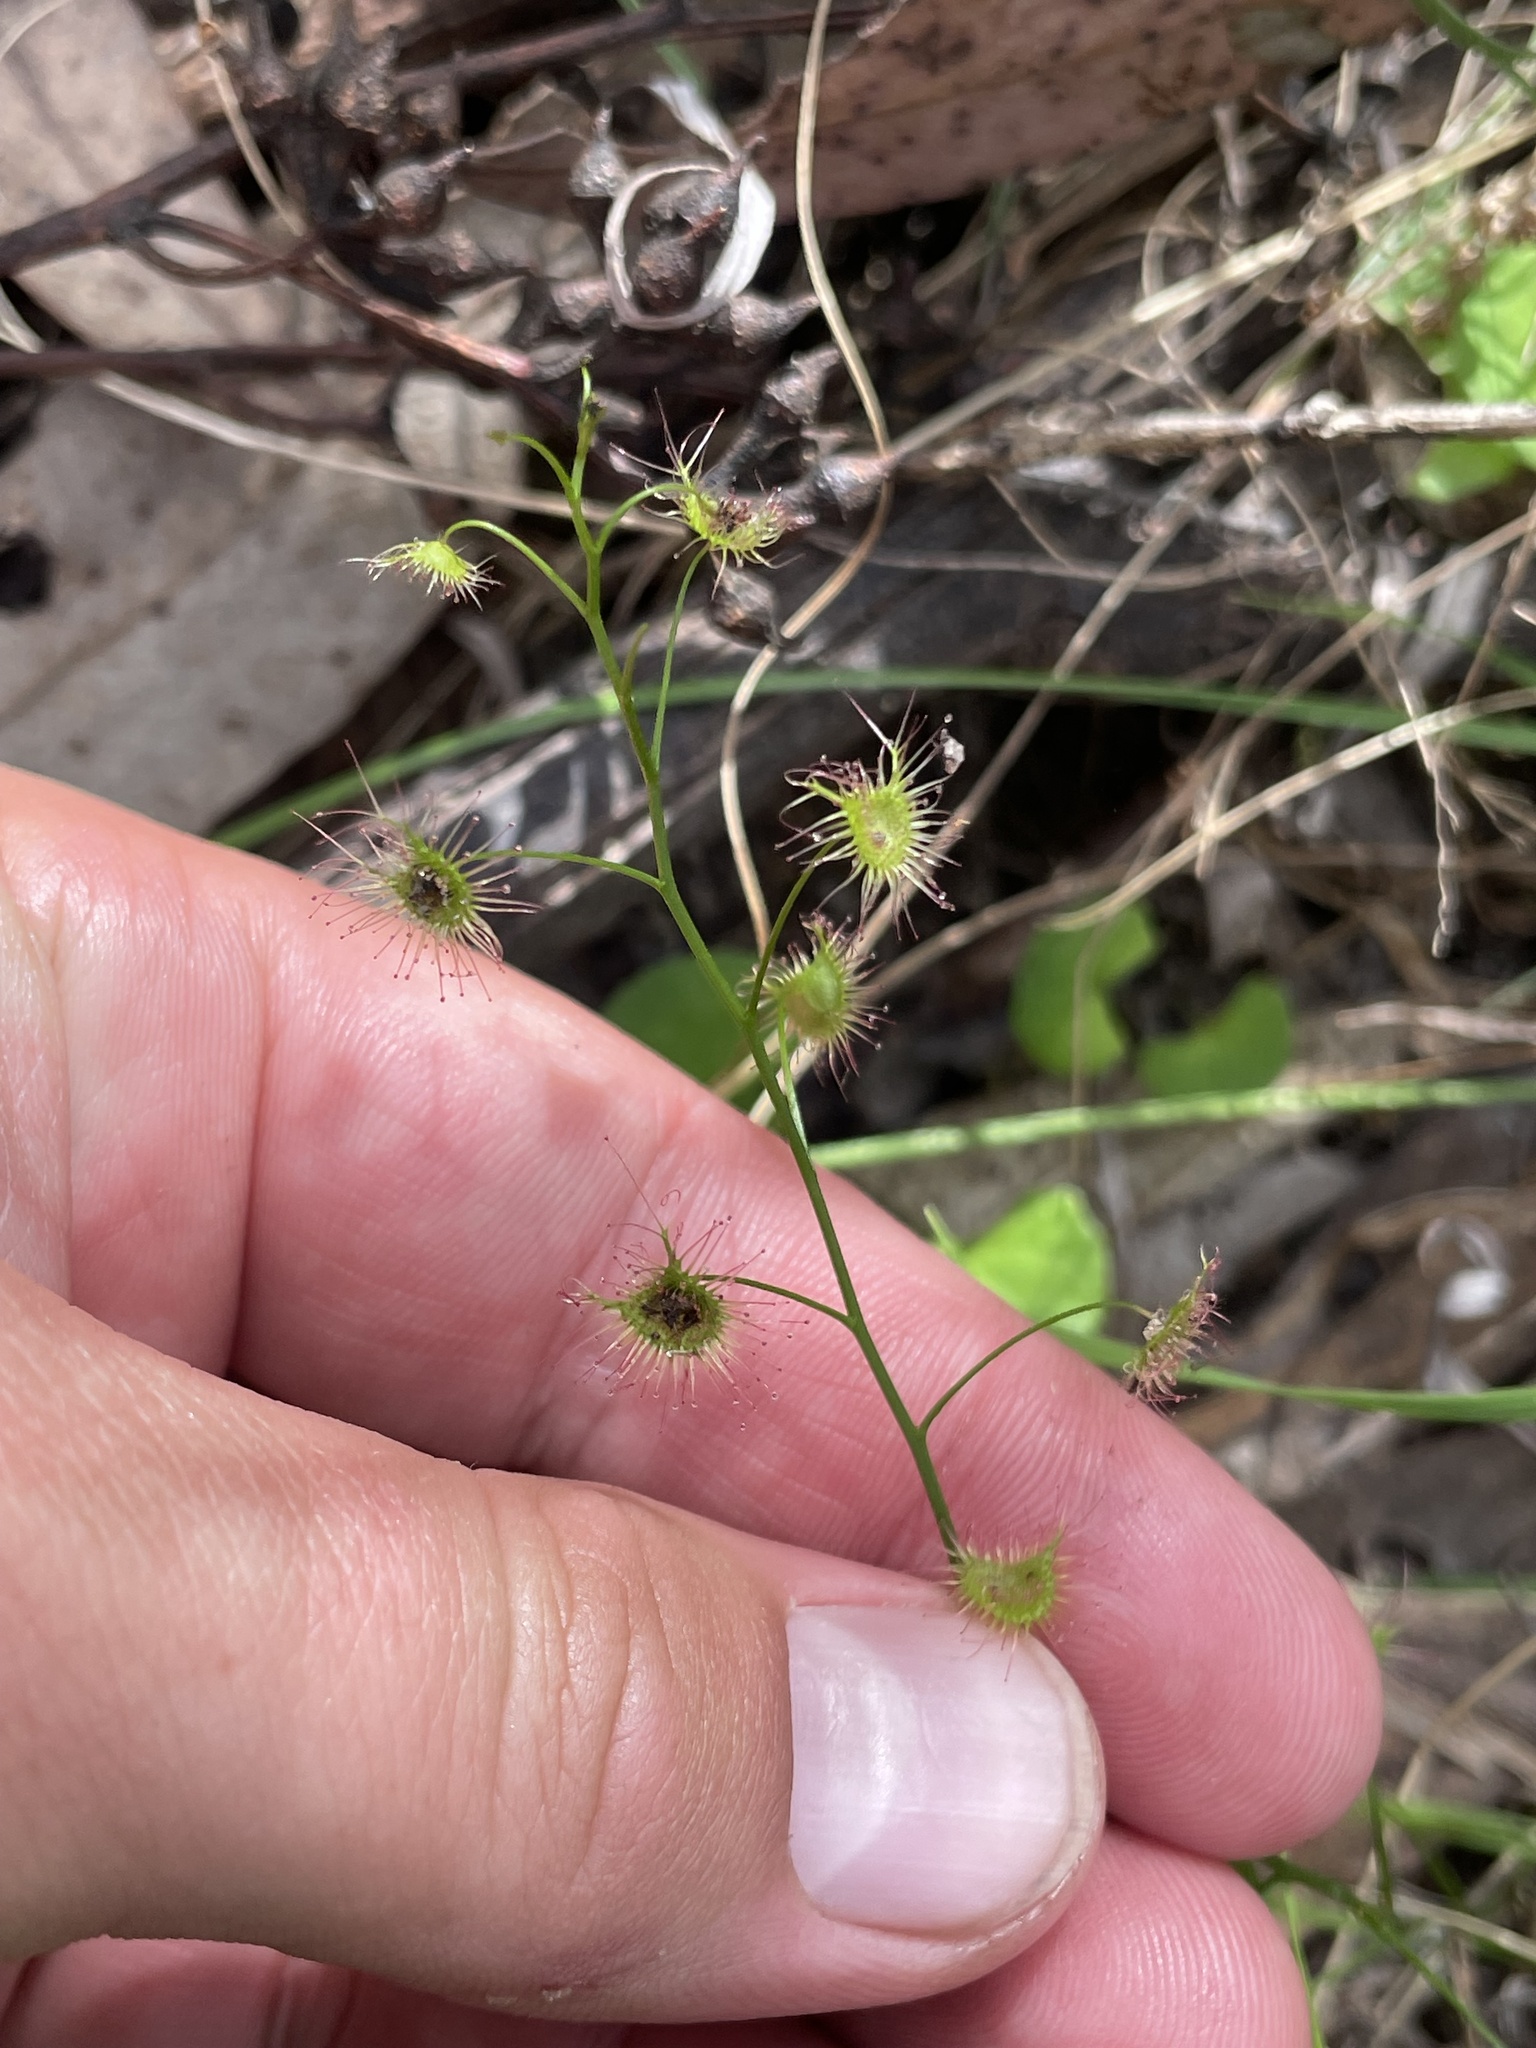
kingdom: Plantae
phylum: Tracheophyta
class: Magnoliopsida
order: Caryophyllales
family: Droseraceae
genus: Drosera
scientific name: Drosera peltata
